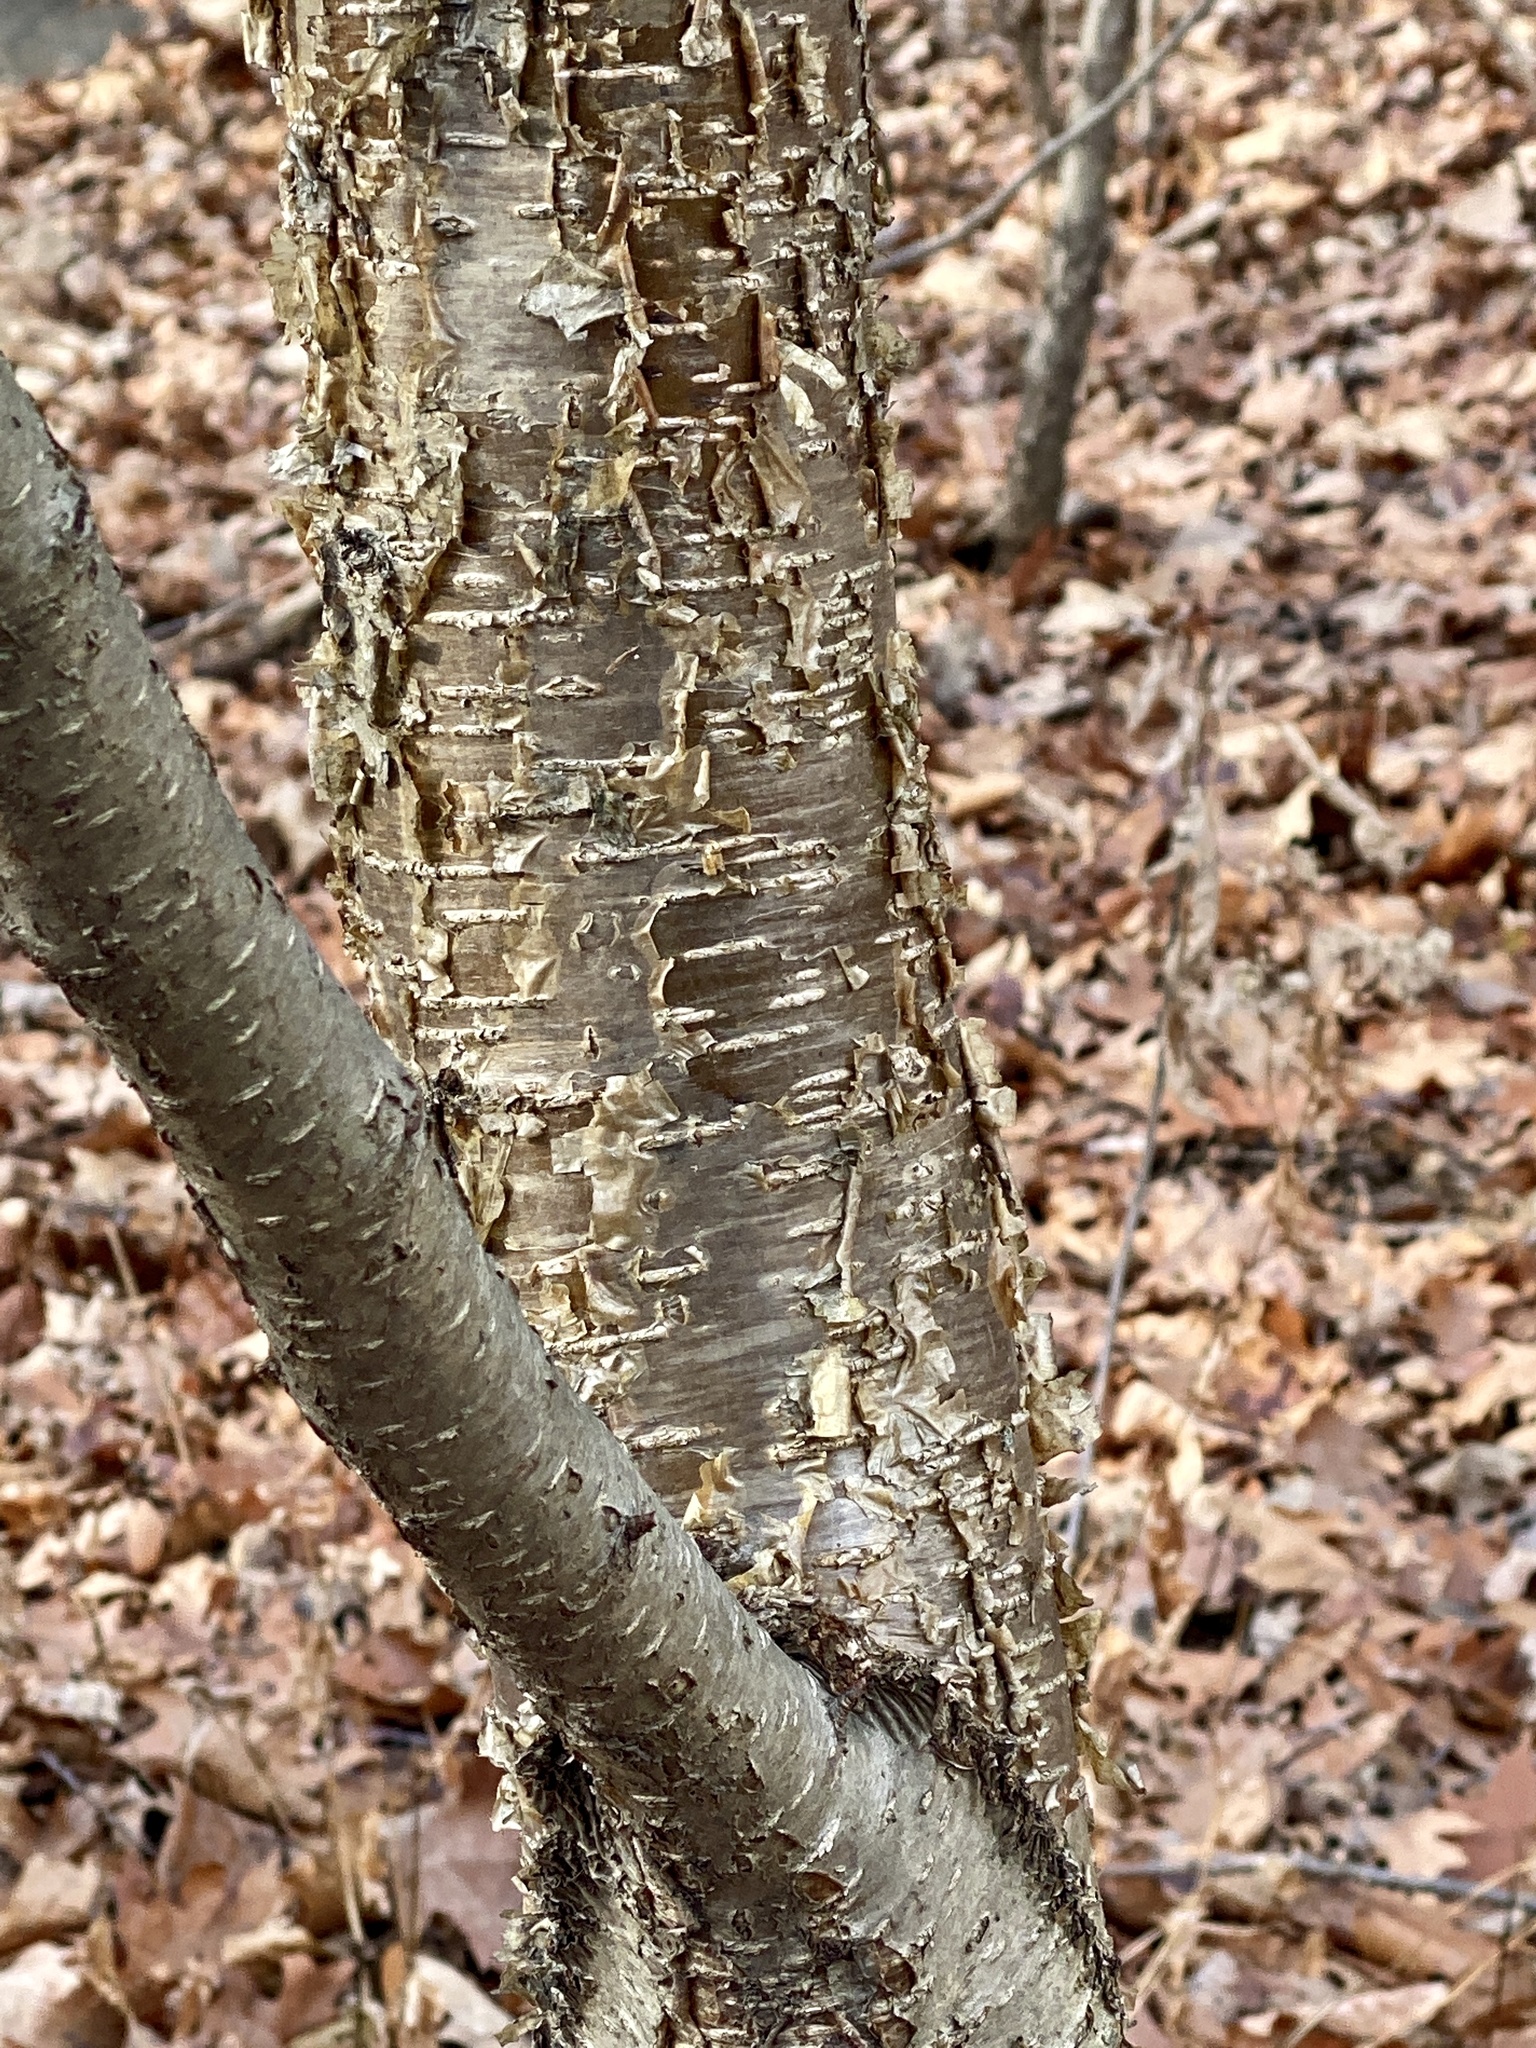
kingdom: Plantae
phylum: Tracheophyta
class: Magnoliopsida
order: Fagales
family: Betulaceae
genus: Betula
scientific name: Betula alleghaniensis
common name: Yellow birch
